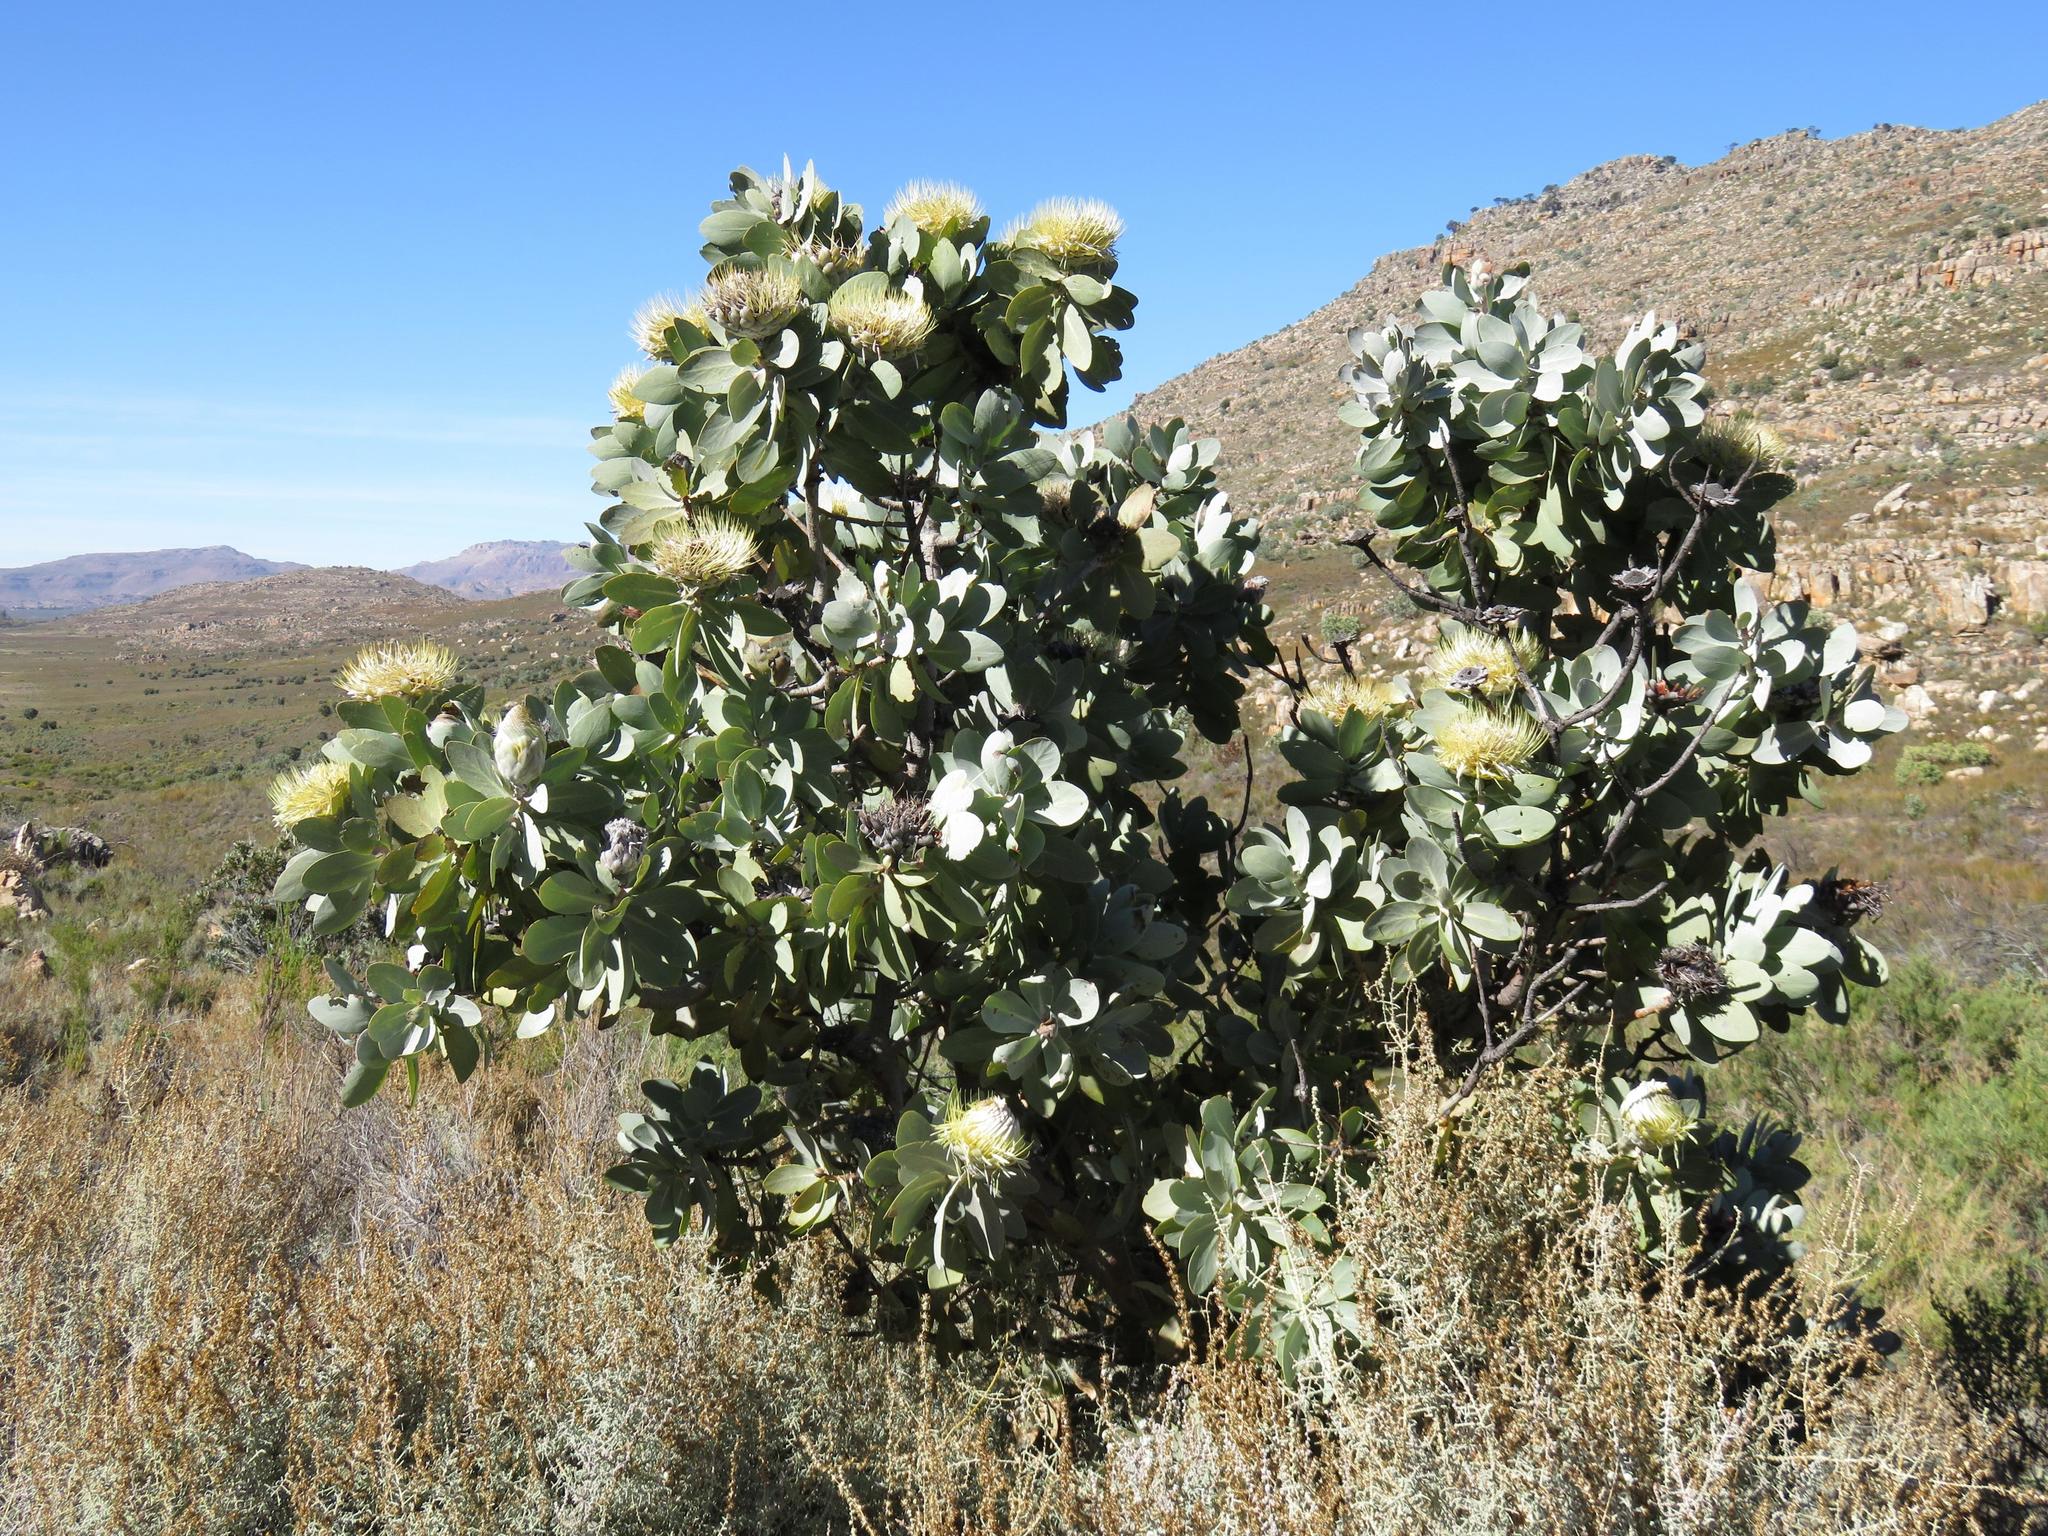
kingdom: Plantae
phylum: Tracheophyta
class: Magnoliopsida
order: Proteales
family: Proteaceae
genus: Protea
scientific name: Protea nitida
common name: Tree protea
